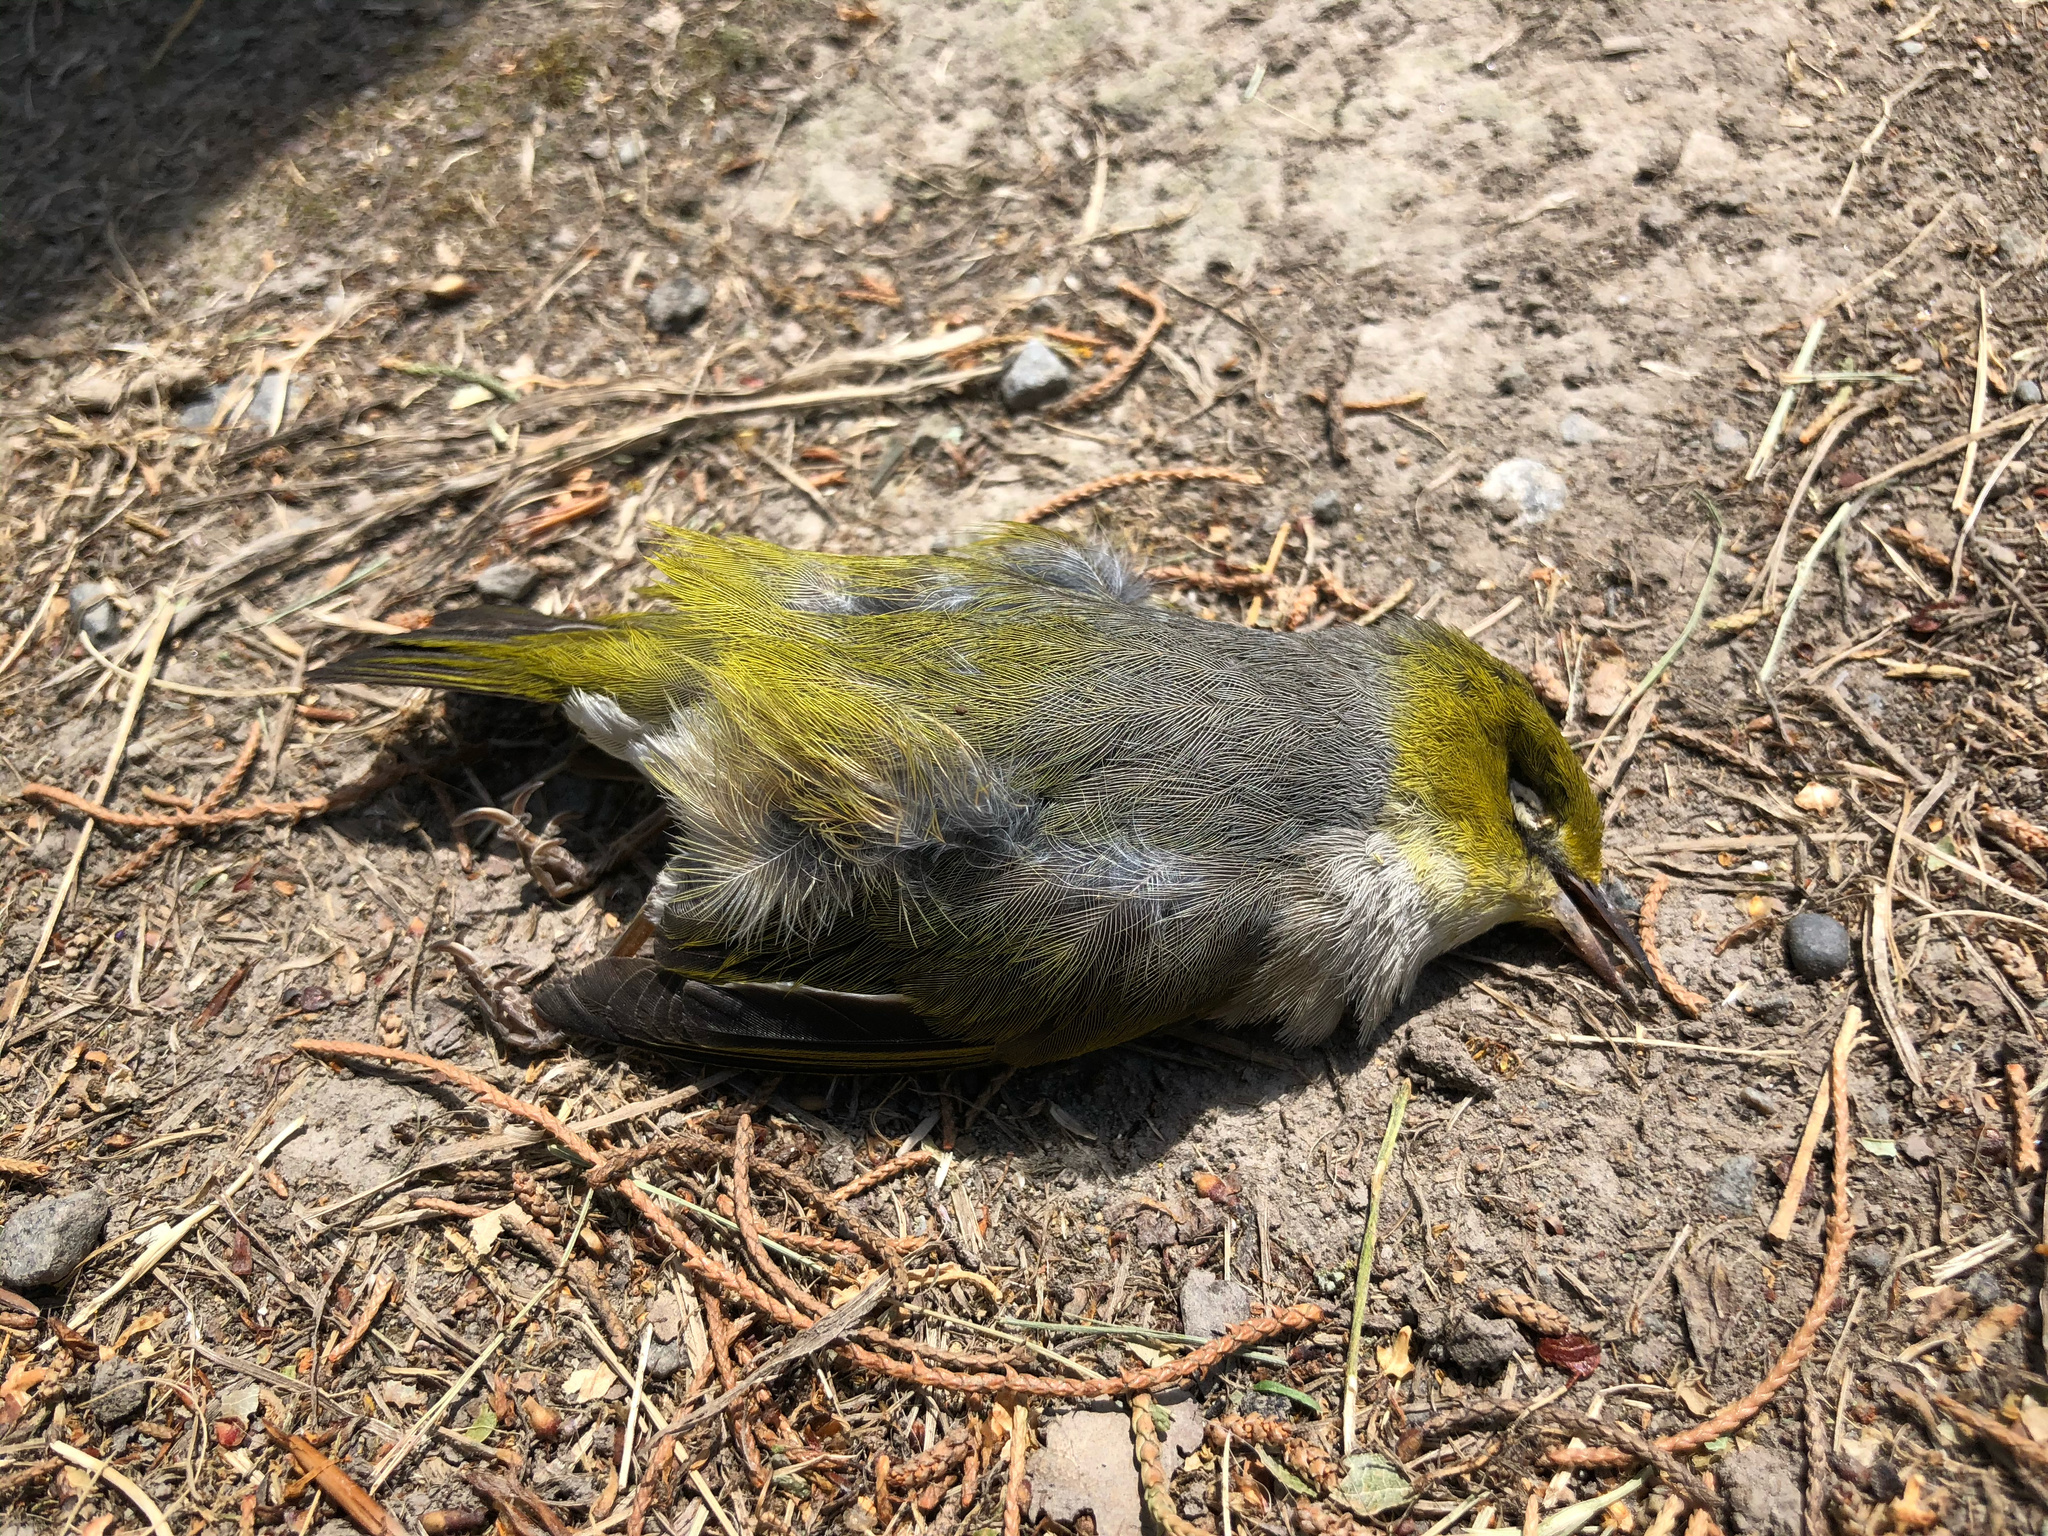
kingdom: Animalia
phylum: Chordata
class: Aves
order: Passeriformes
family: Zosteropidae
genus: Zosterops
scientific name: Zosterops lateralis
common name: Silvereye
